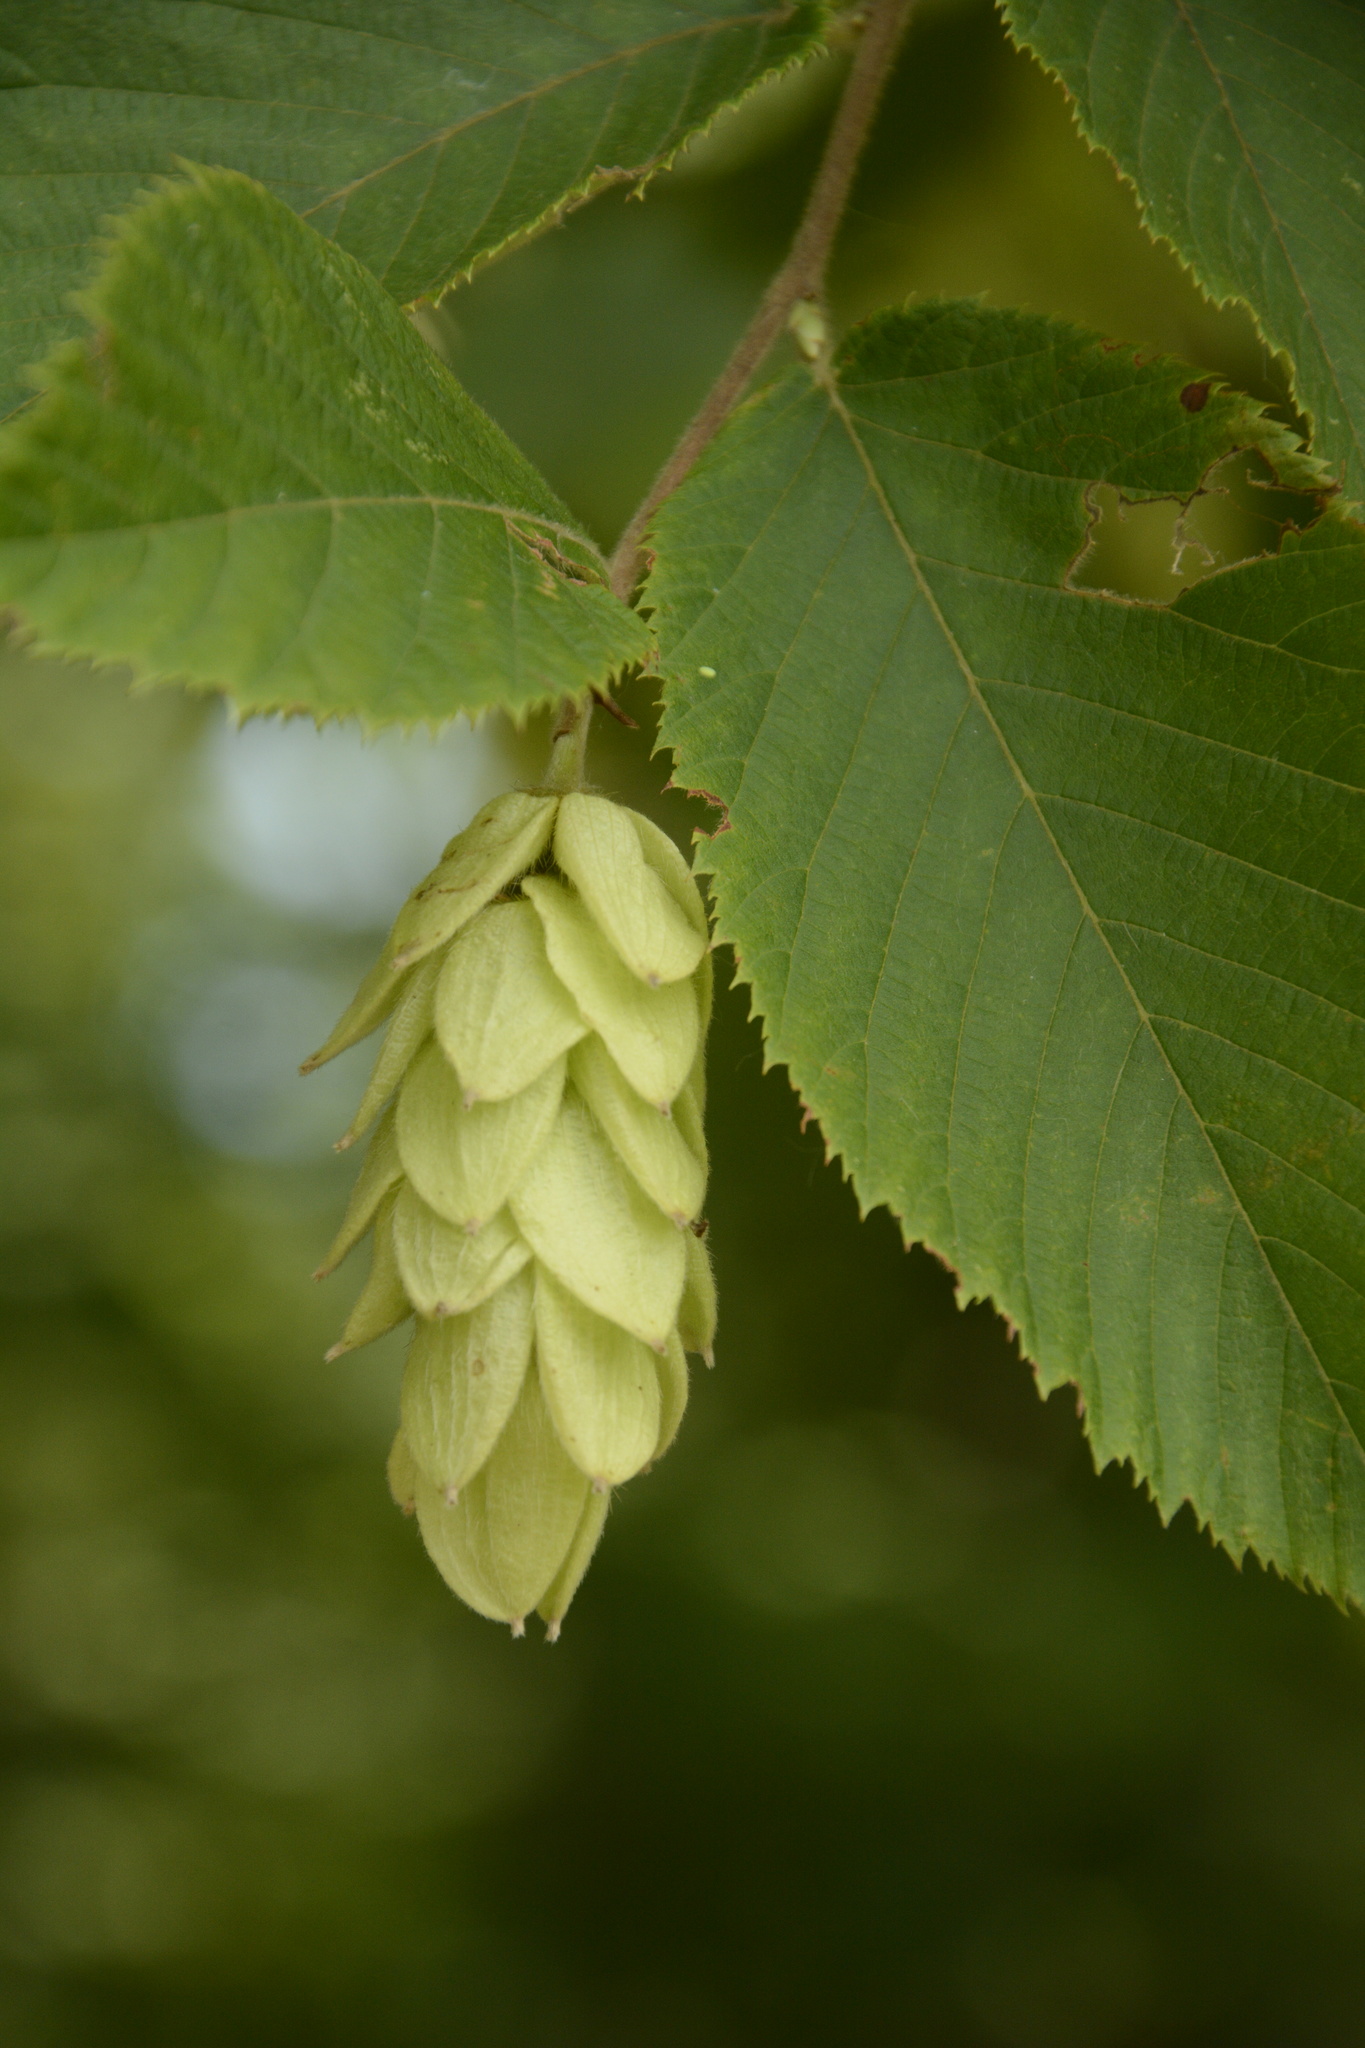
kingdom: Plantae
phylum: Tracheophyta
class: Magnoliopsida
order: Fagales
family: Betulaceae
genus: Ostrya
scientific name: Ostrya virginiana
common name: Ironwood
